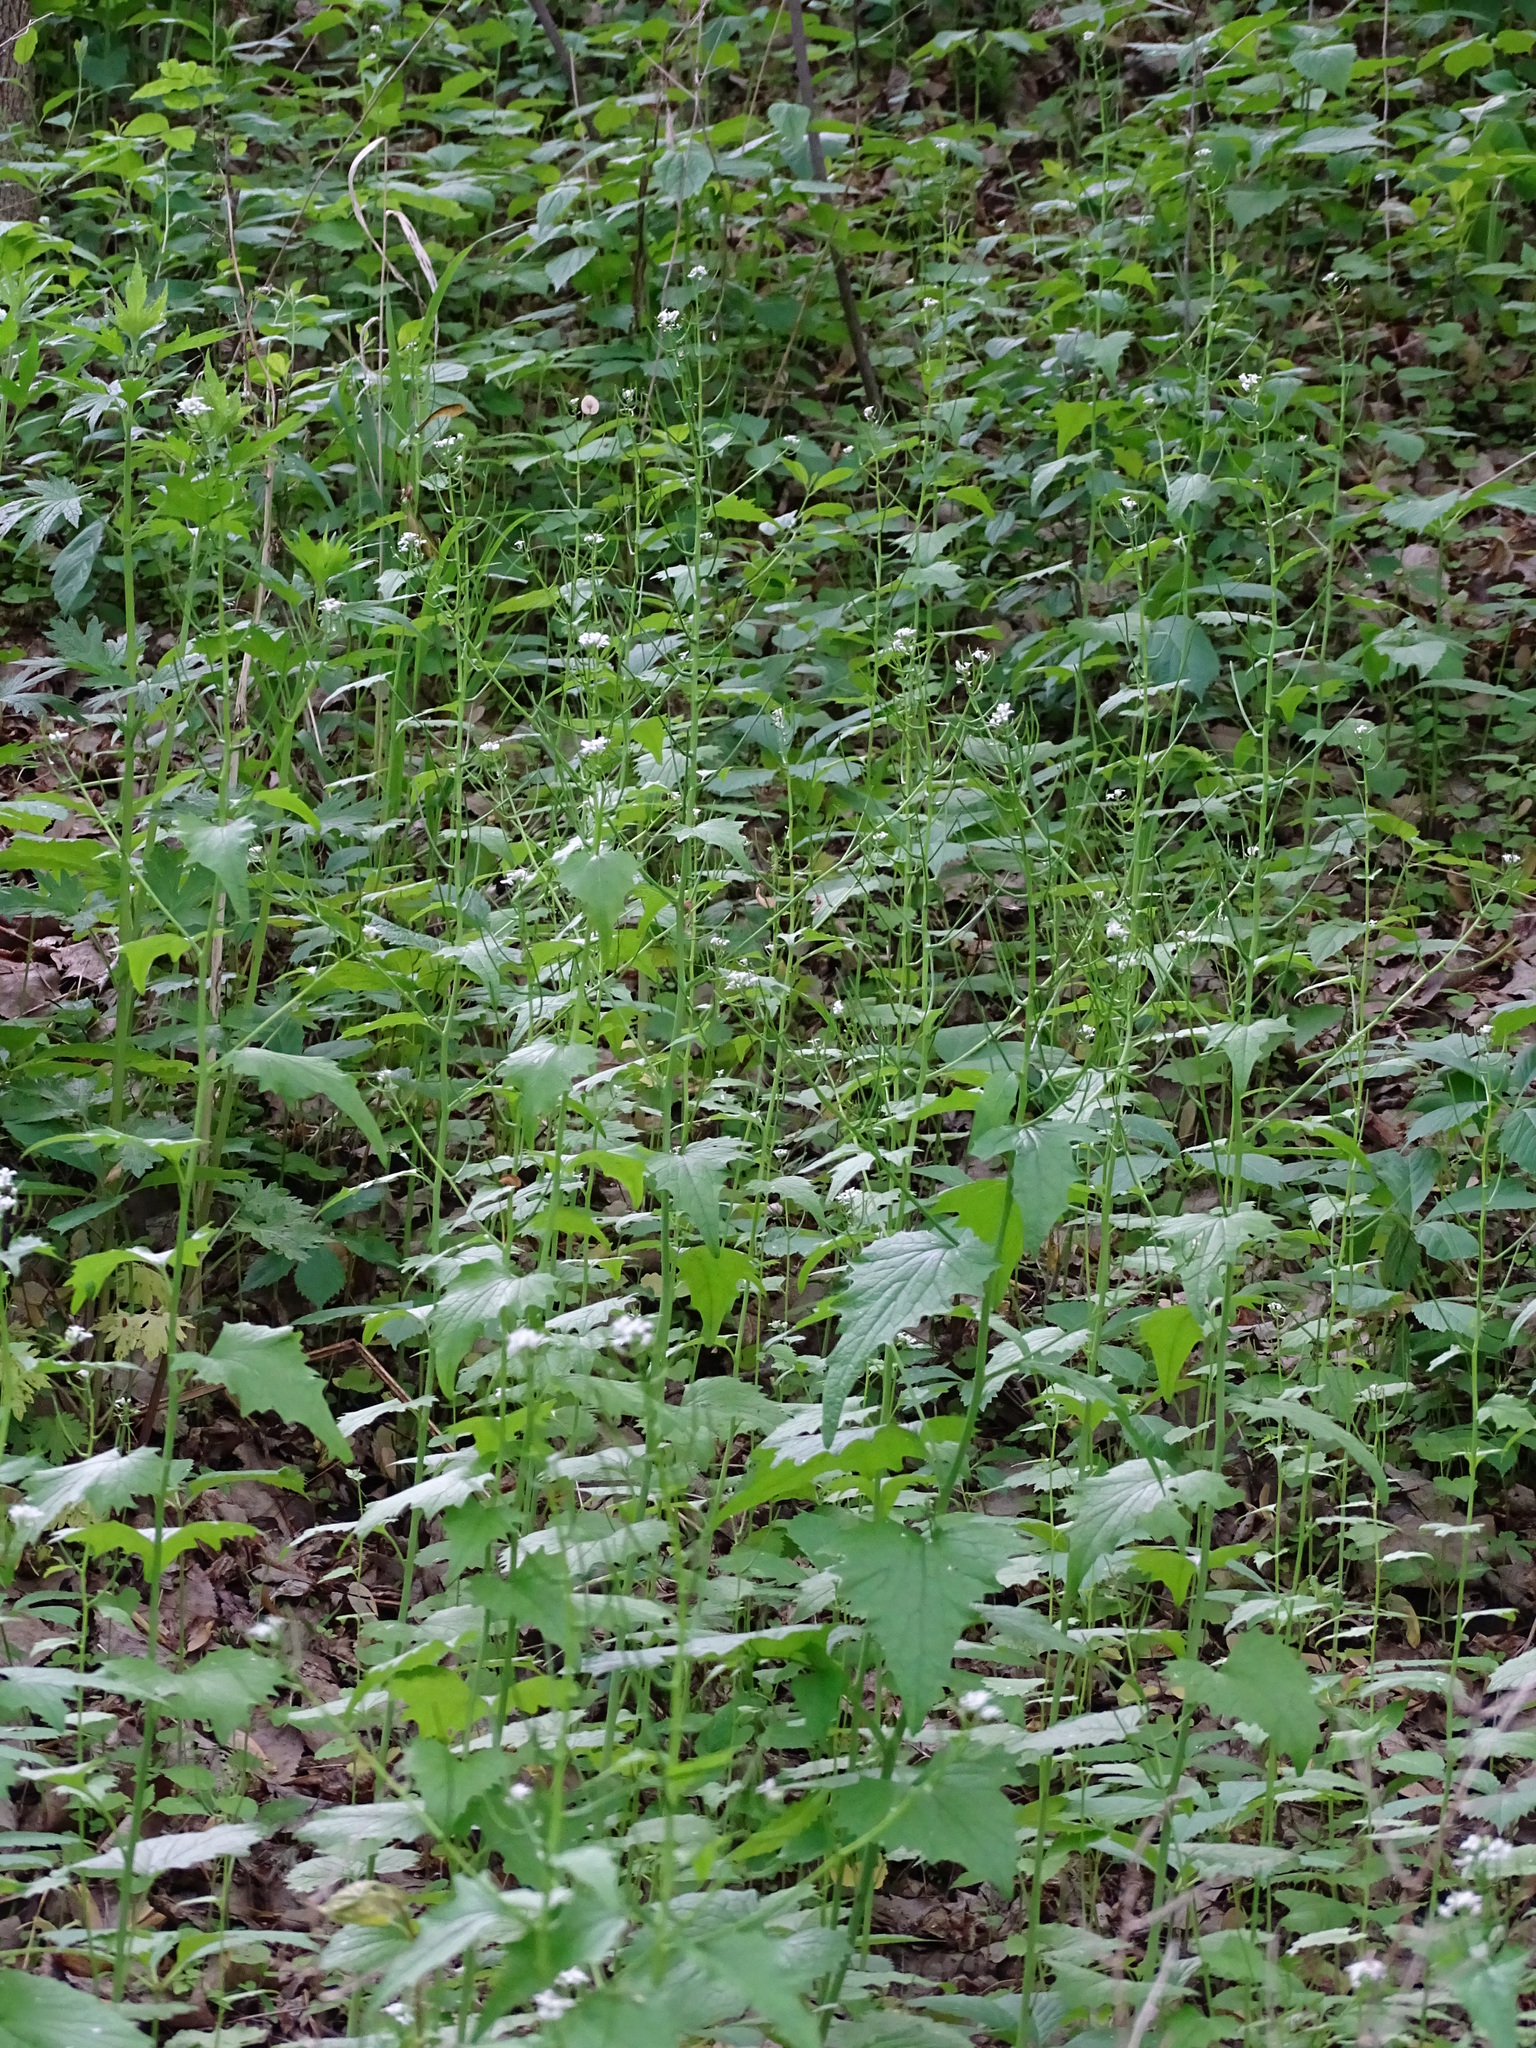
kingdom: Plantae
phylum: Tracheophyta
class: Magnoliopsida
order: Brassicales
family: Brassicaceae
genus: Alliaria
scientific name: Alliaria petiolata
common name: Garlic mustard
